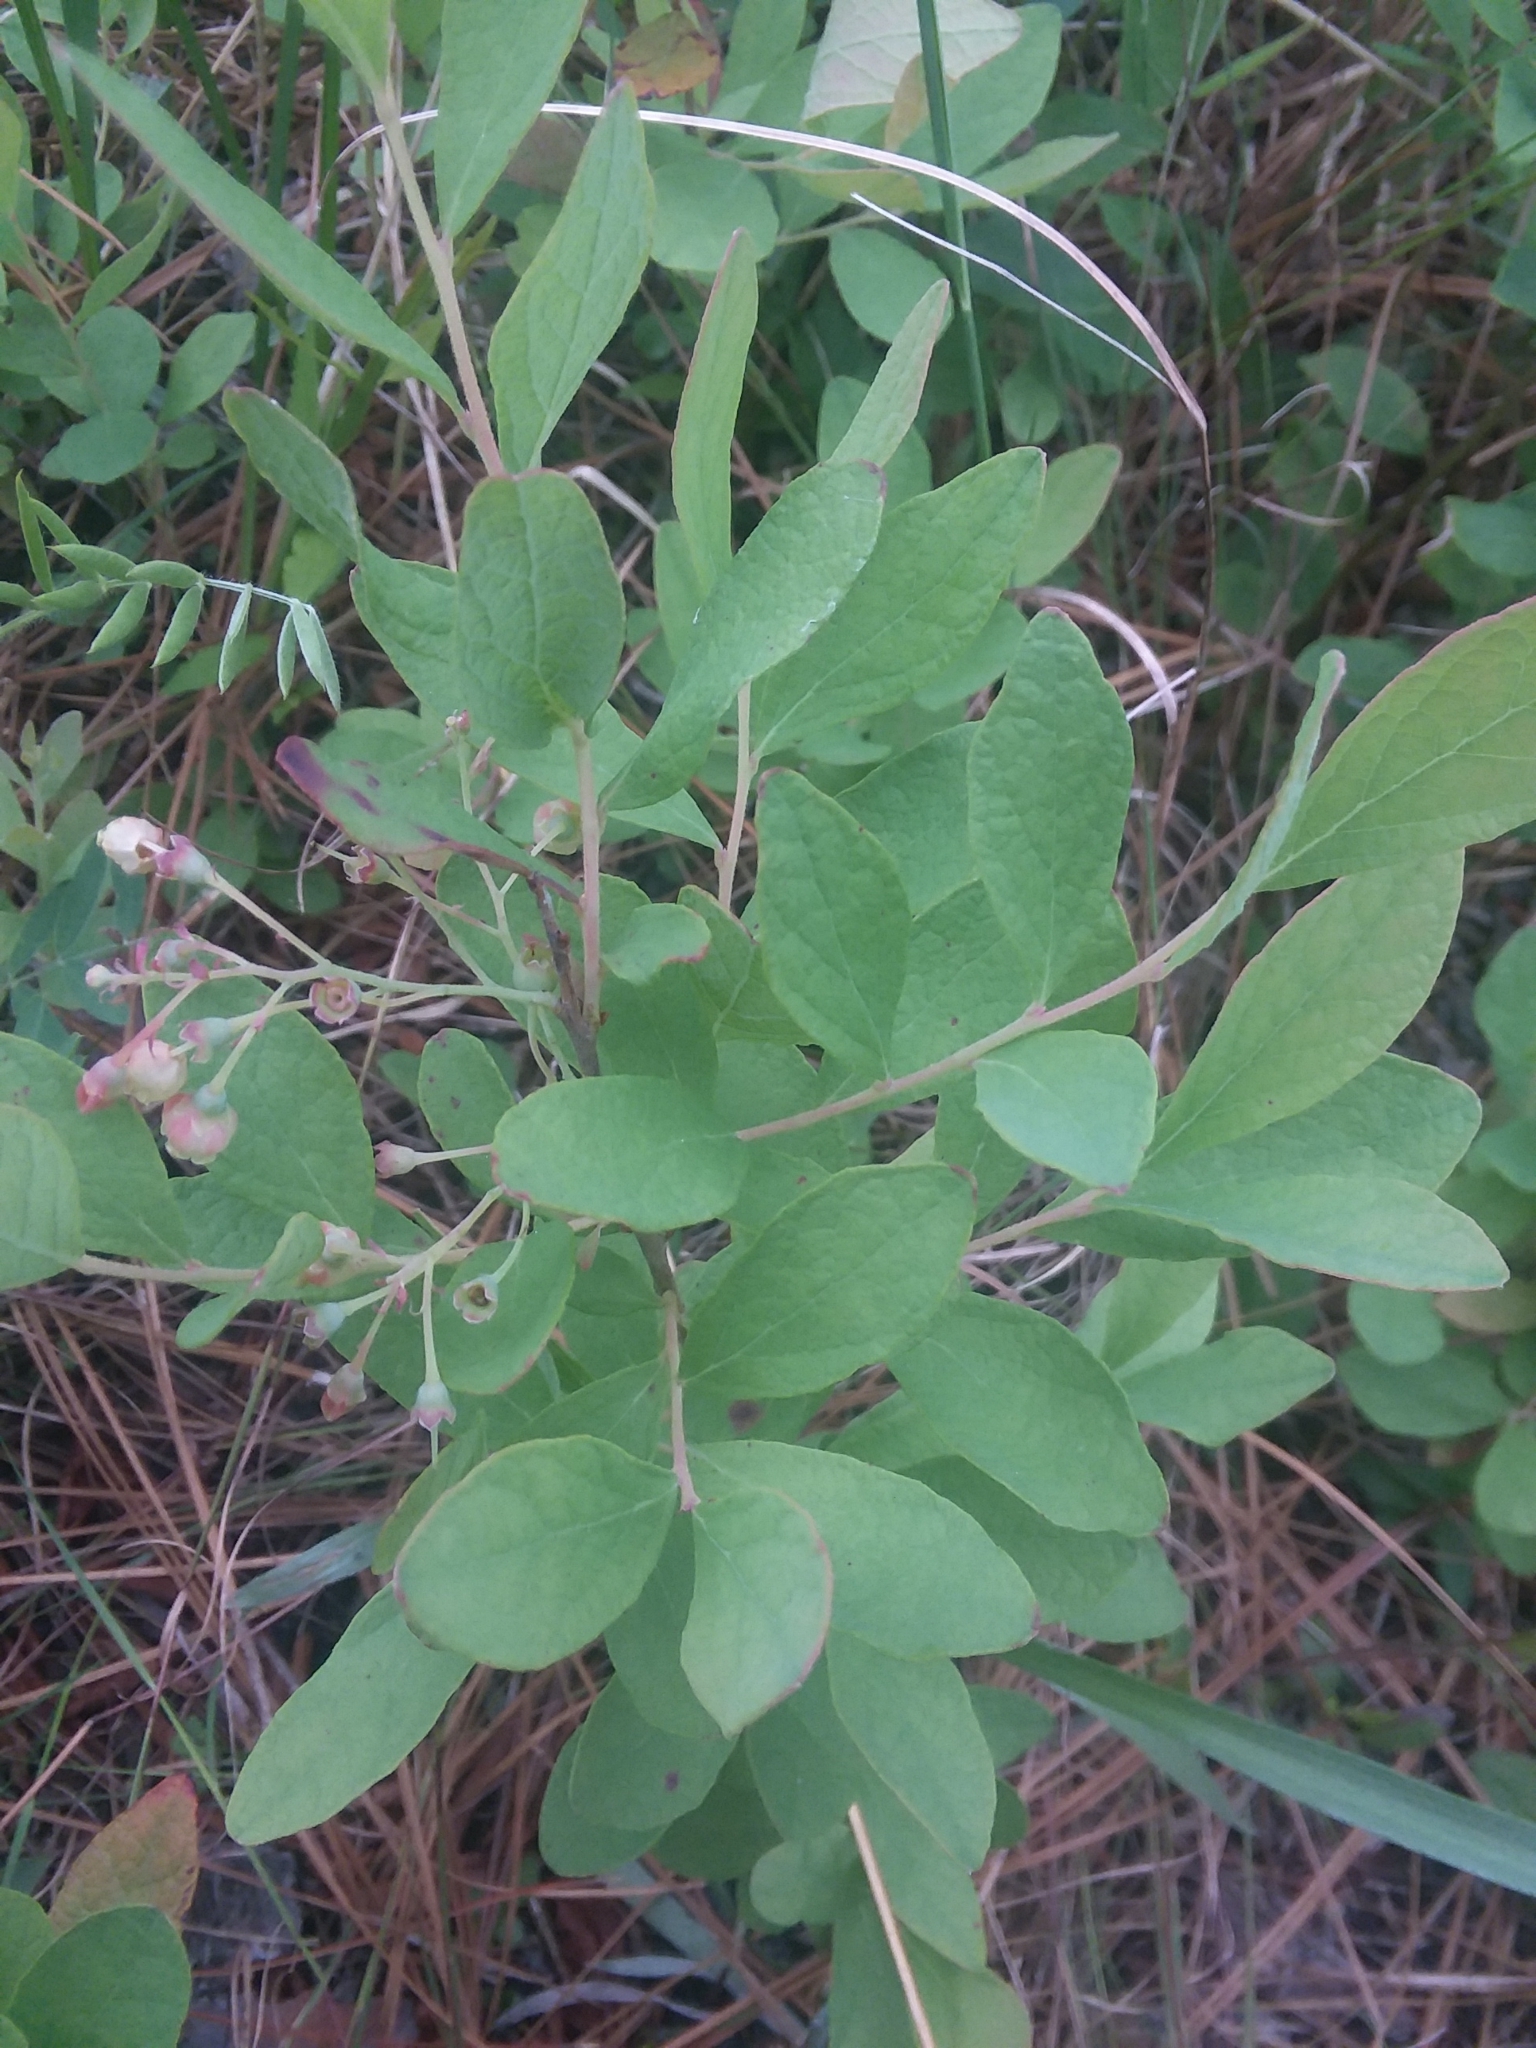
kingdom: Plantae
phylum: Tracheophyta
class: Magnoliopsida
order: Ericales
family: Ericaceae
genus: Gaylussacia
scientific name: Gaylussacia nana
